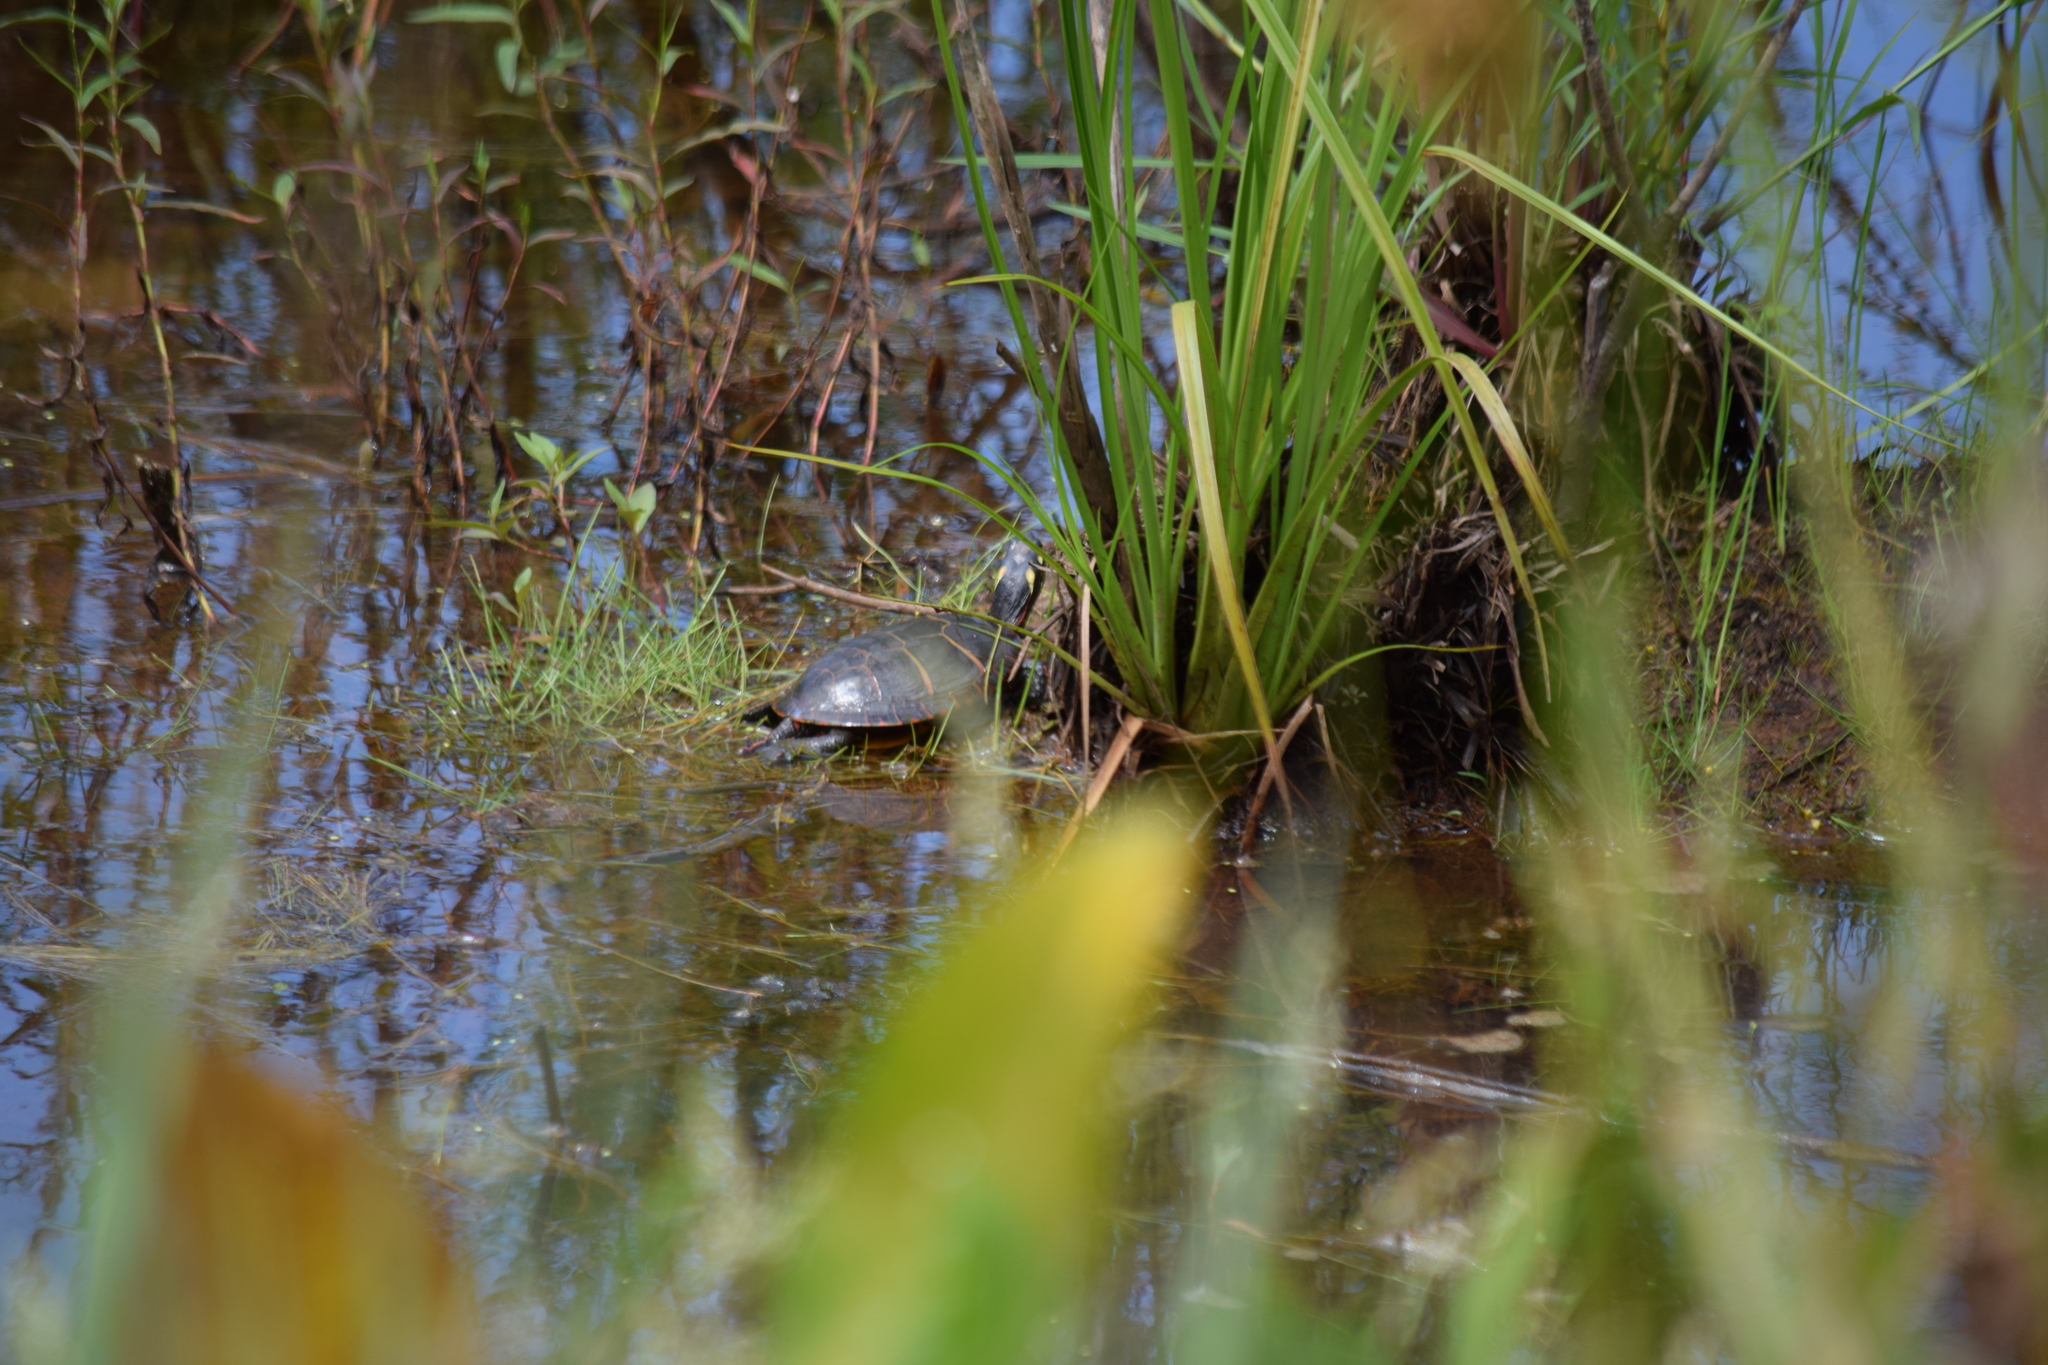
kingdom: Animalia
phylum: Chordata
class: Testudines
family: Emydidae
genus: Chrysemys
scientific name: Chrysemys picta
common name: Painted turtle
